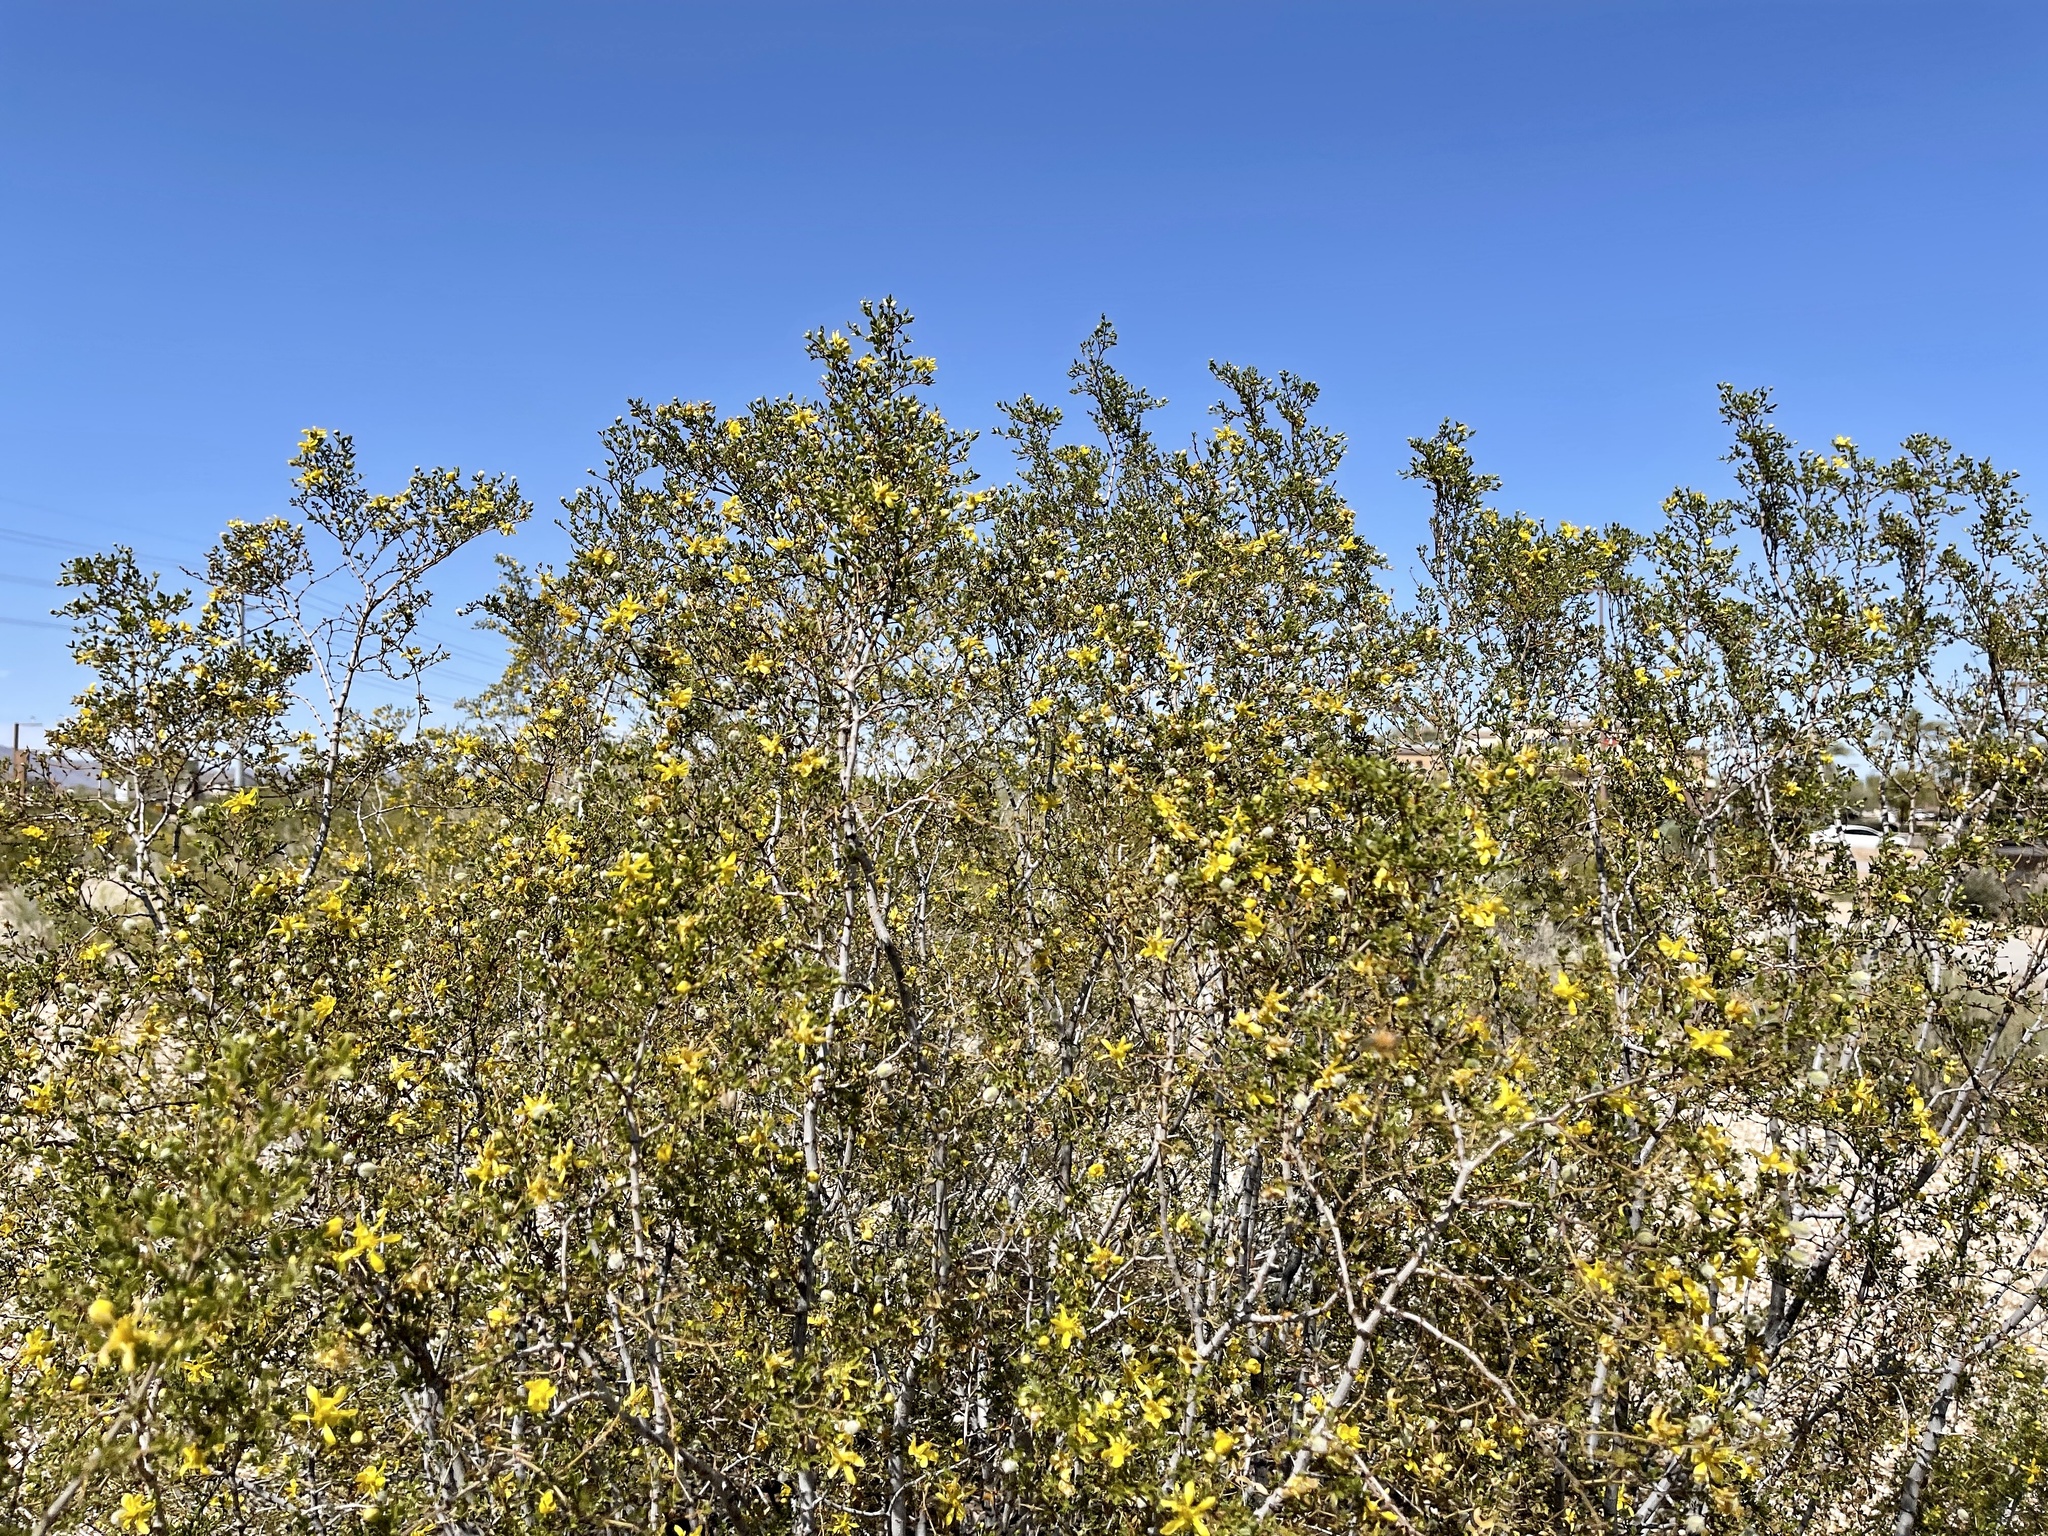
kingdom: Plantae
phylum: Tracheophyta
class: Magnoliopsida
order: Zygophyllales
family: Zygophyllaceae
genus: Larrea
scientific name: Larrea tridentata
